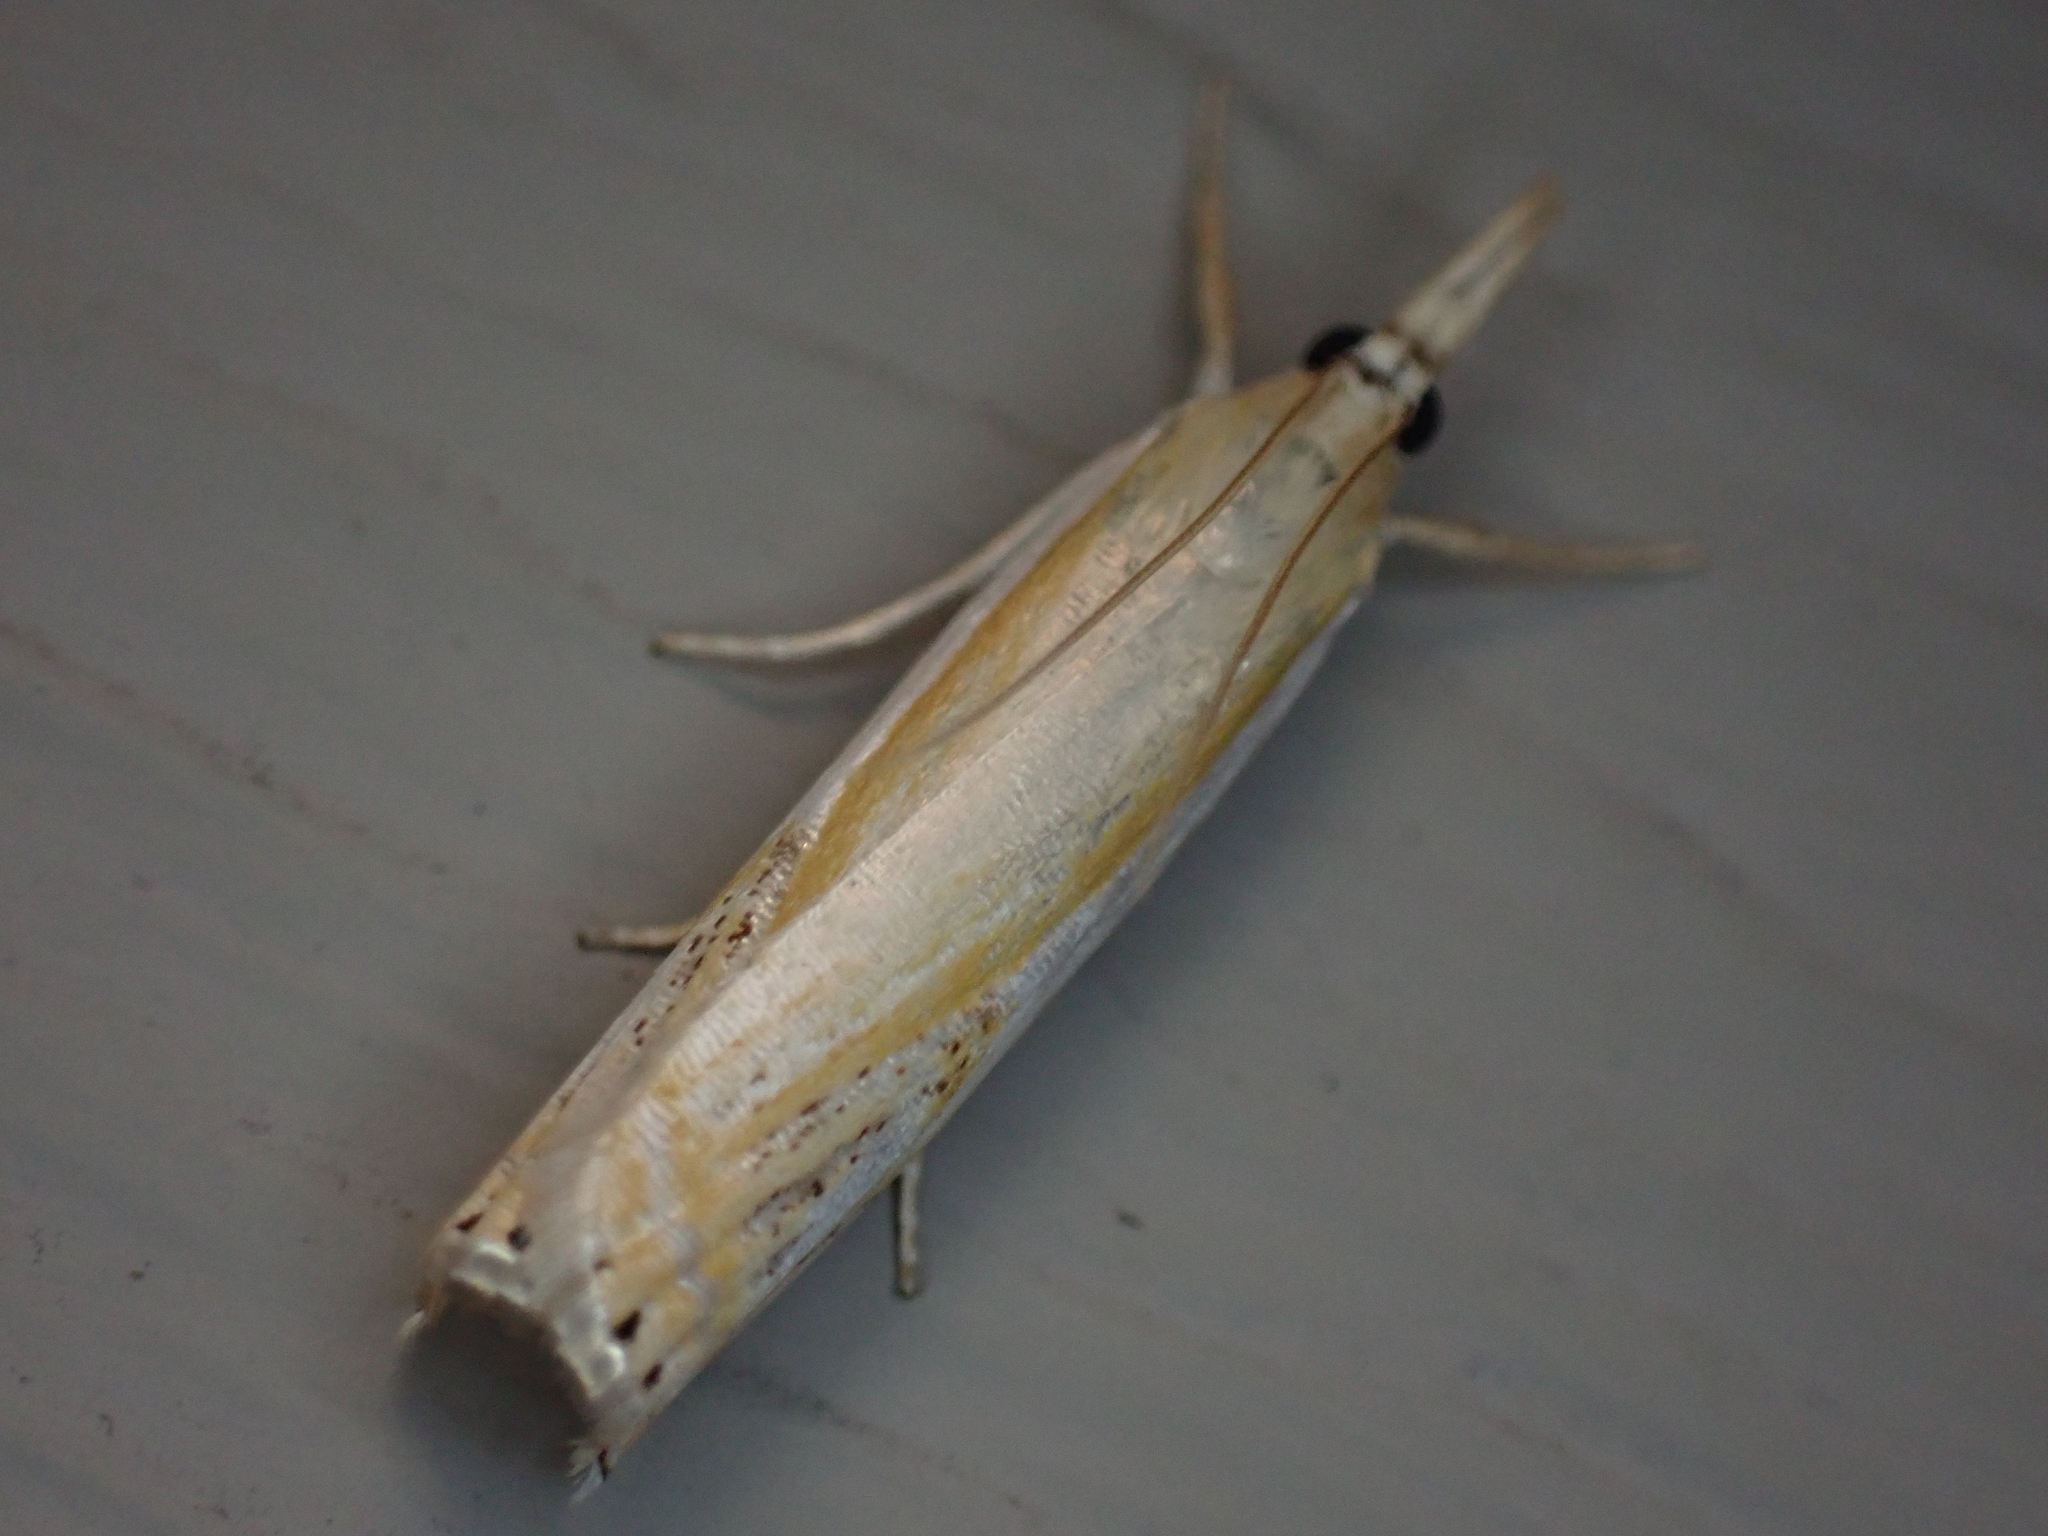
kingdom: Animalia
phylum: Arthropoda
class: Insecta
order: Lepidoptera
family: Crambidae
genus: Crambus
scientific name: Crambus agitatellus
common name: Double-banded grass-veneer
